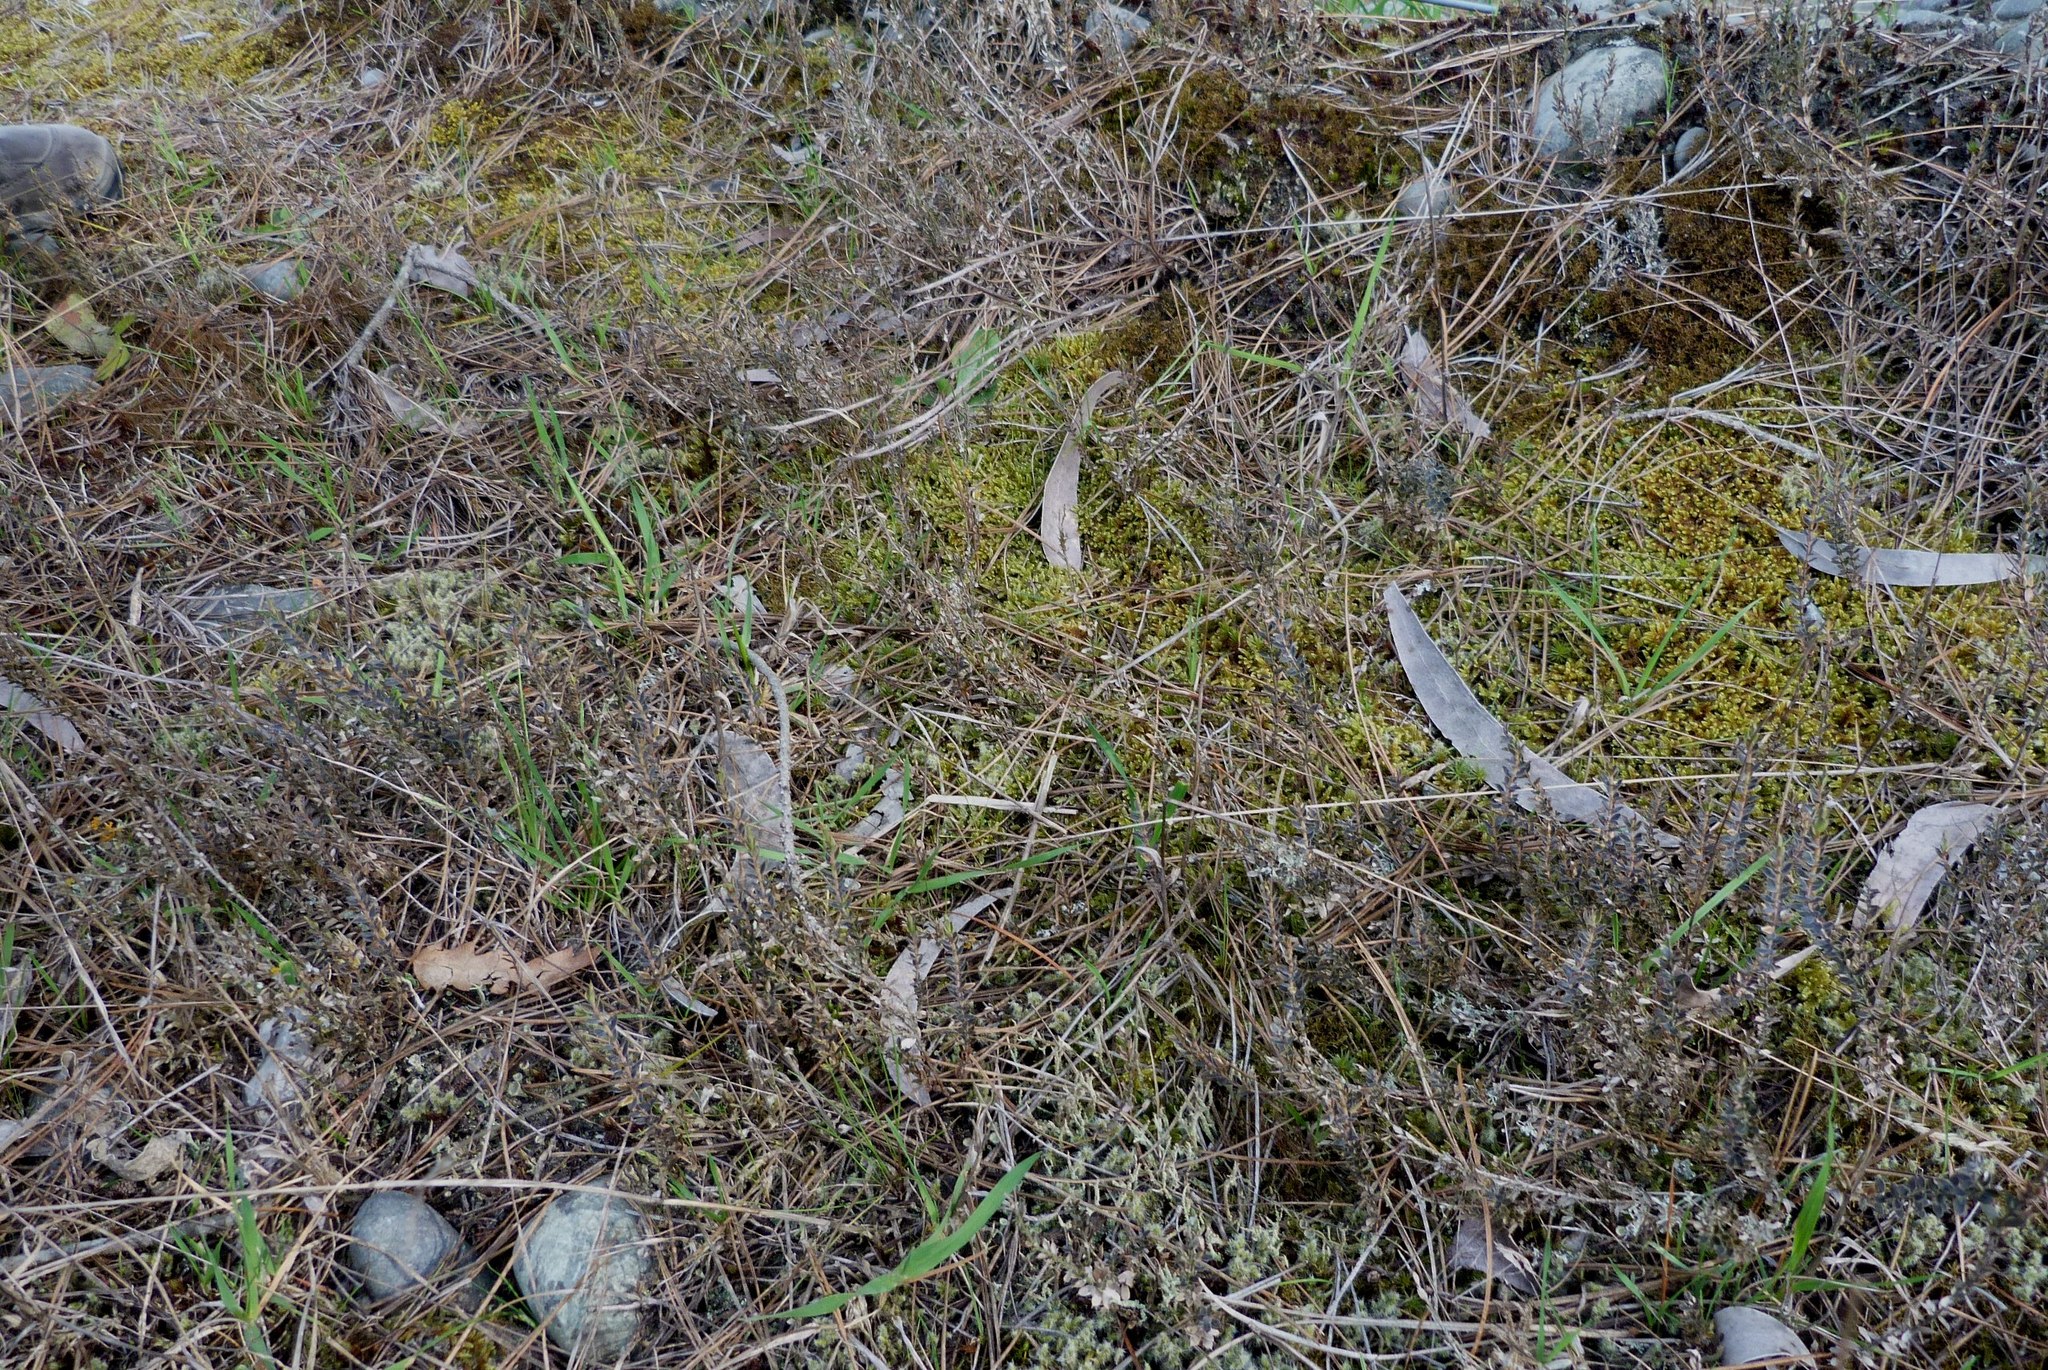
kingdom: Plantae
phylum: Tracheophyta
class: Magnoliopsida
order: Ericales
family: Ericaceae
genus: Styphelia
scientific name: Styphelia nesophila
